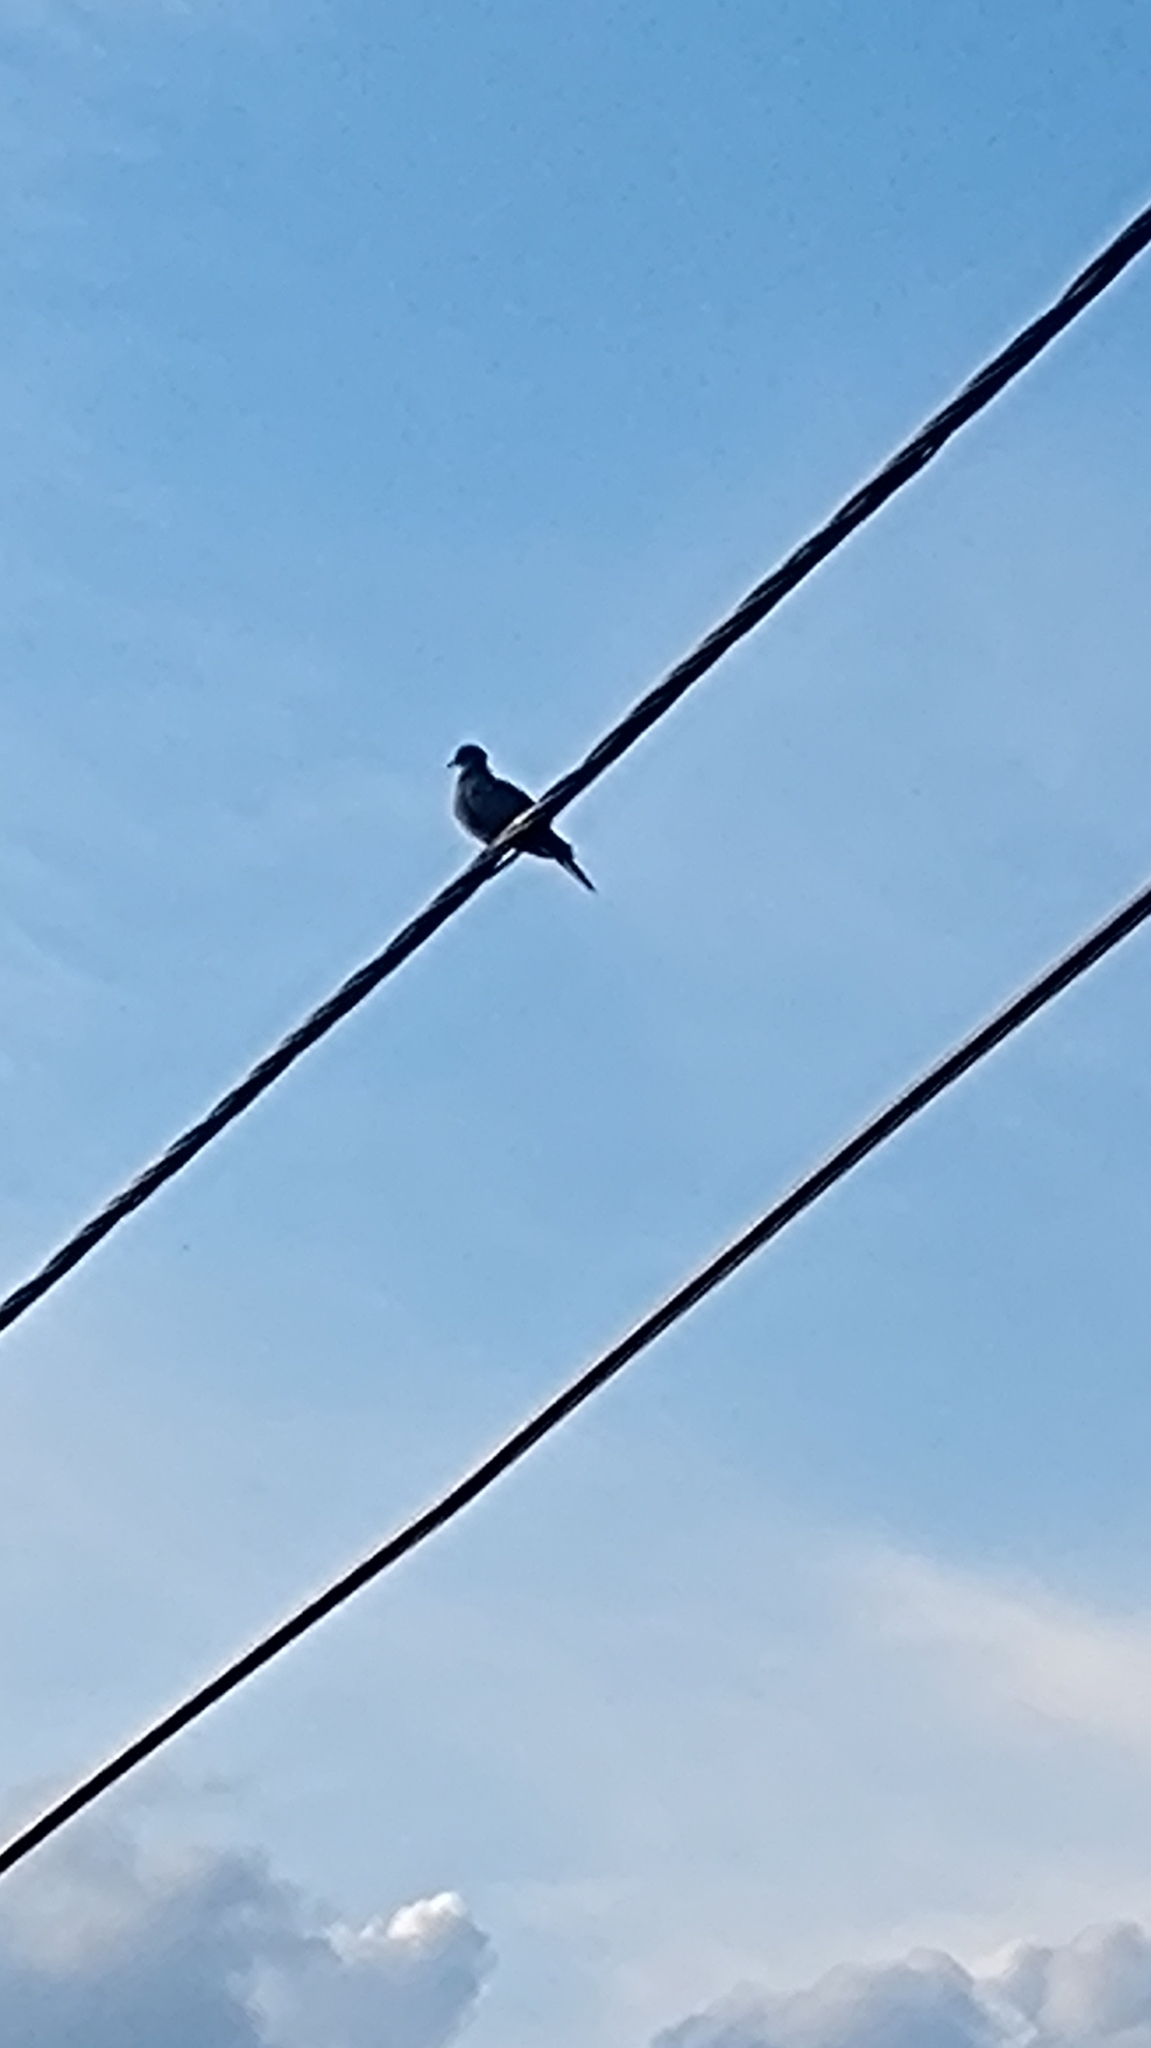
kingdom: Animalia
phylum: Chordata
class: Aves
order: Columbiformes
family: Columbidae
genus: Streptopelia
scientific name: Streptopelia decaocto
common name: Eurasian collared dove
